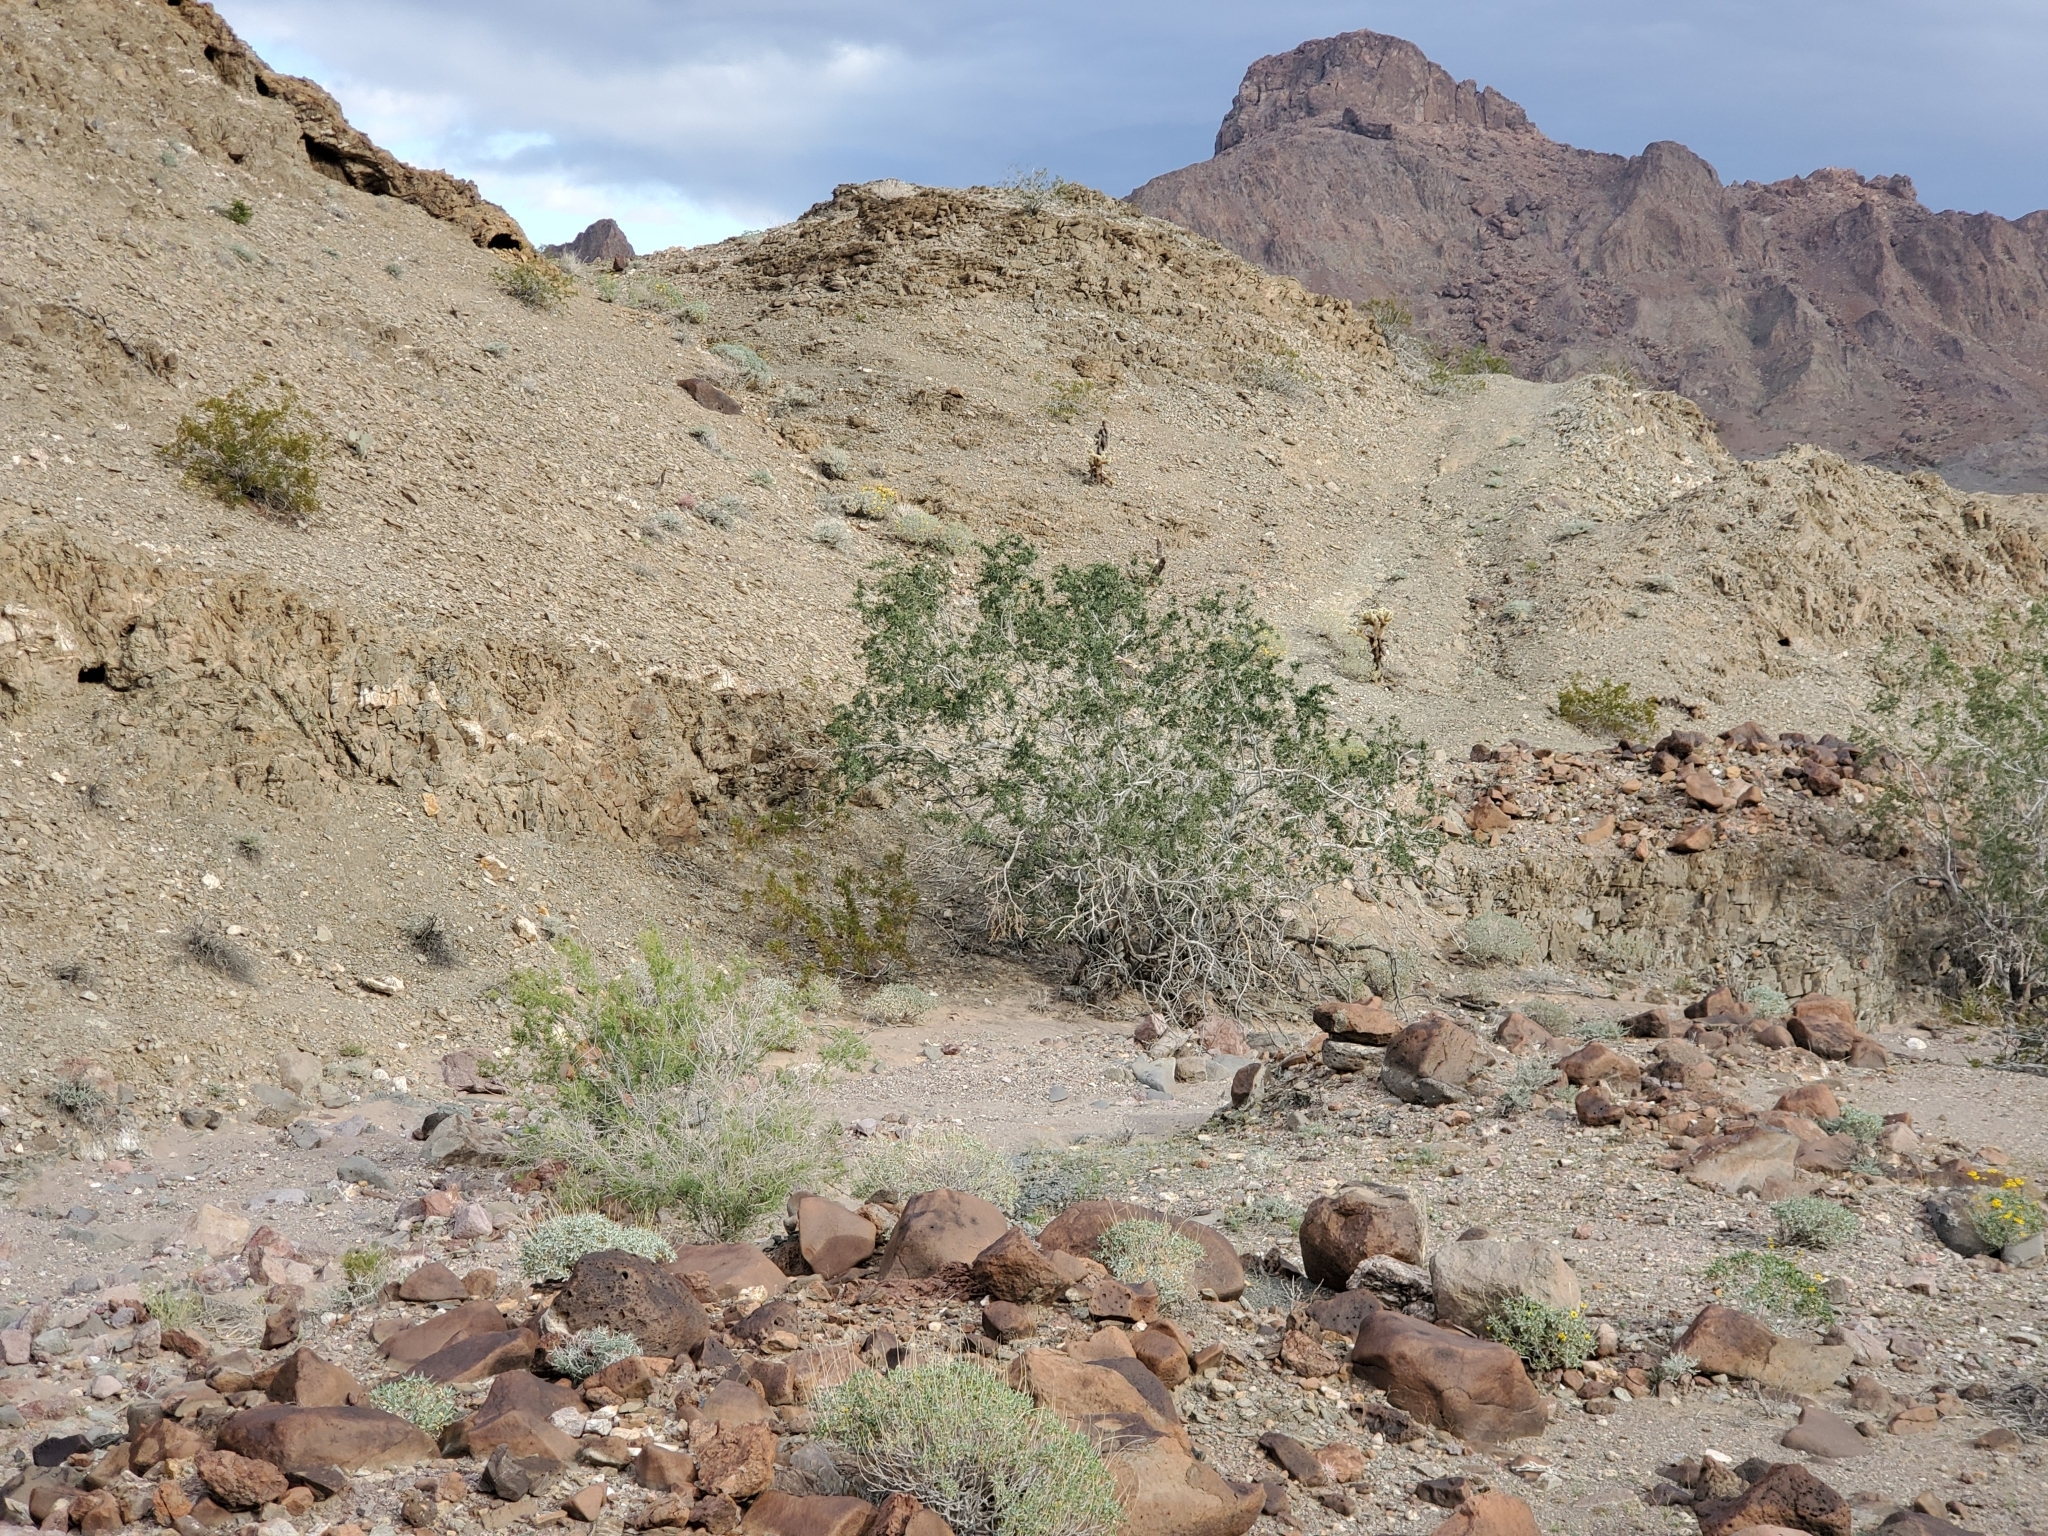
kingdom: Plantae
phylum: Tracheophyta
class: Magnoliopsida
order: Fabales
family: Fabaceae
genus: Olneya
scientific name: Olneya tesota
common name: Desert ironwood
